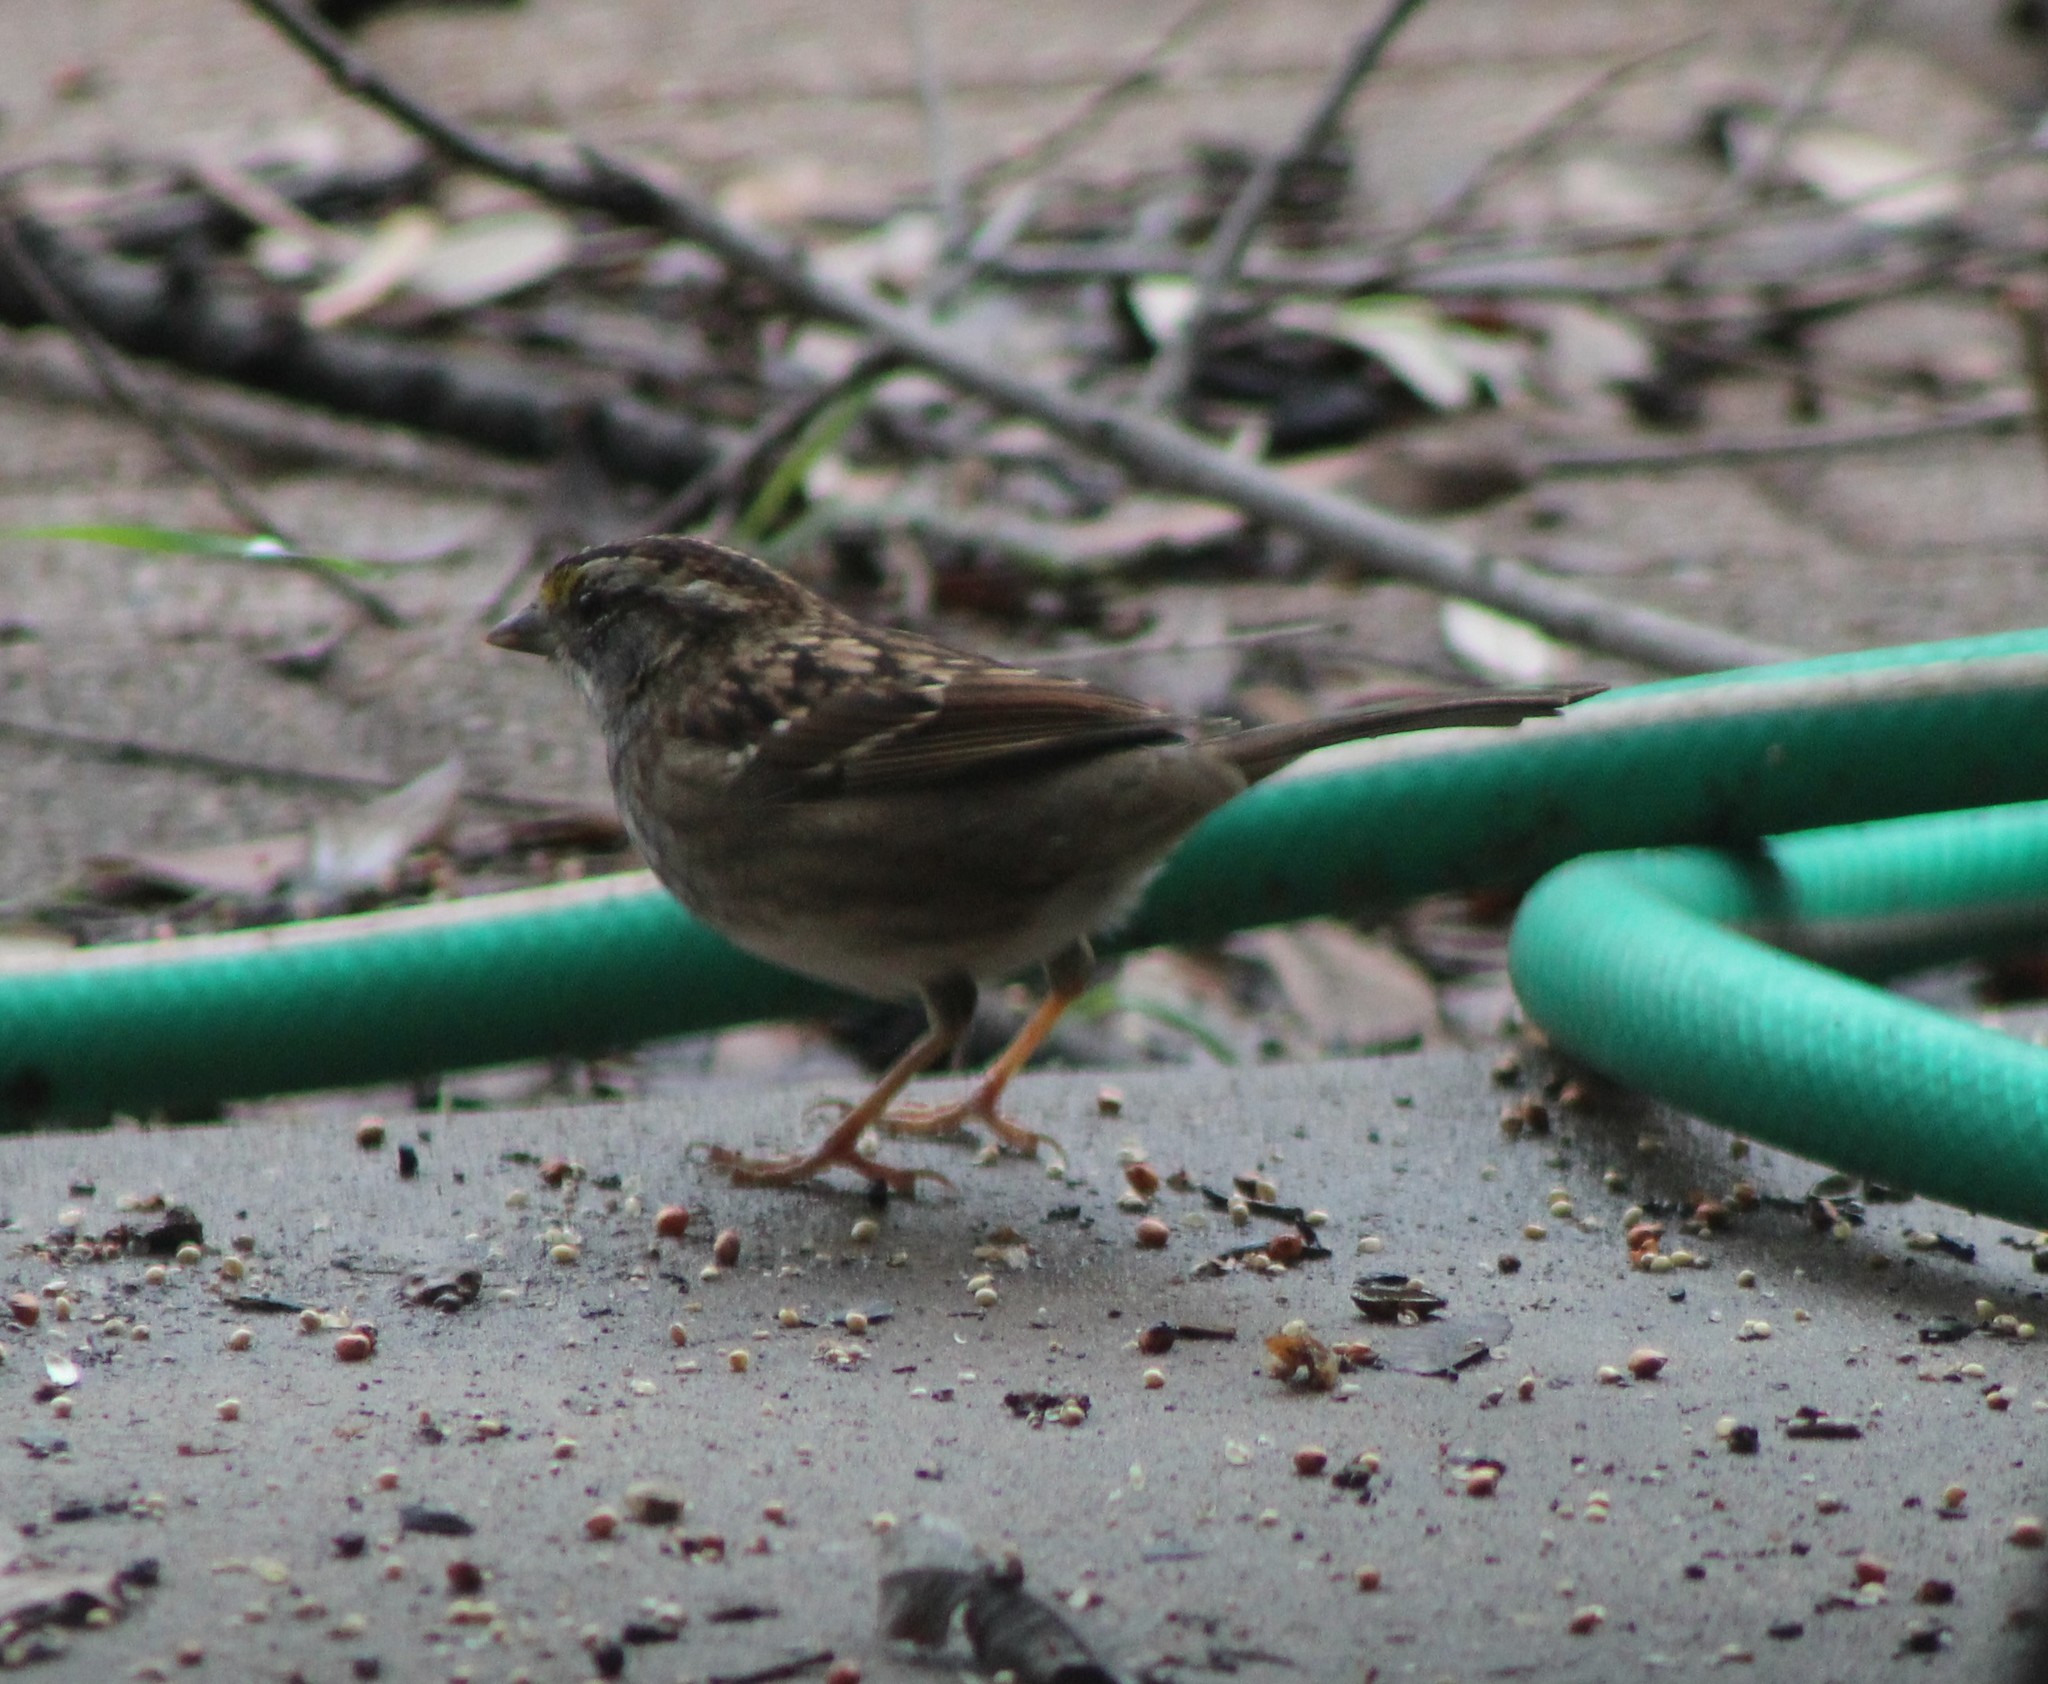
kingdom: Animalia
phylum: Chordata
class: Aves
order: Passeriformes
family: Passerellidae
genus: Zonotrichia
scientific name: Zonotrichia albicollis
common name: White-throated sparrow
